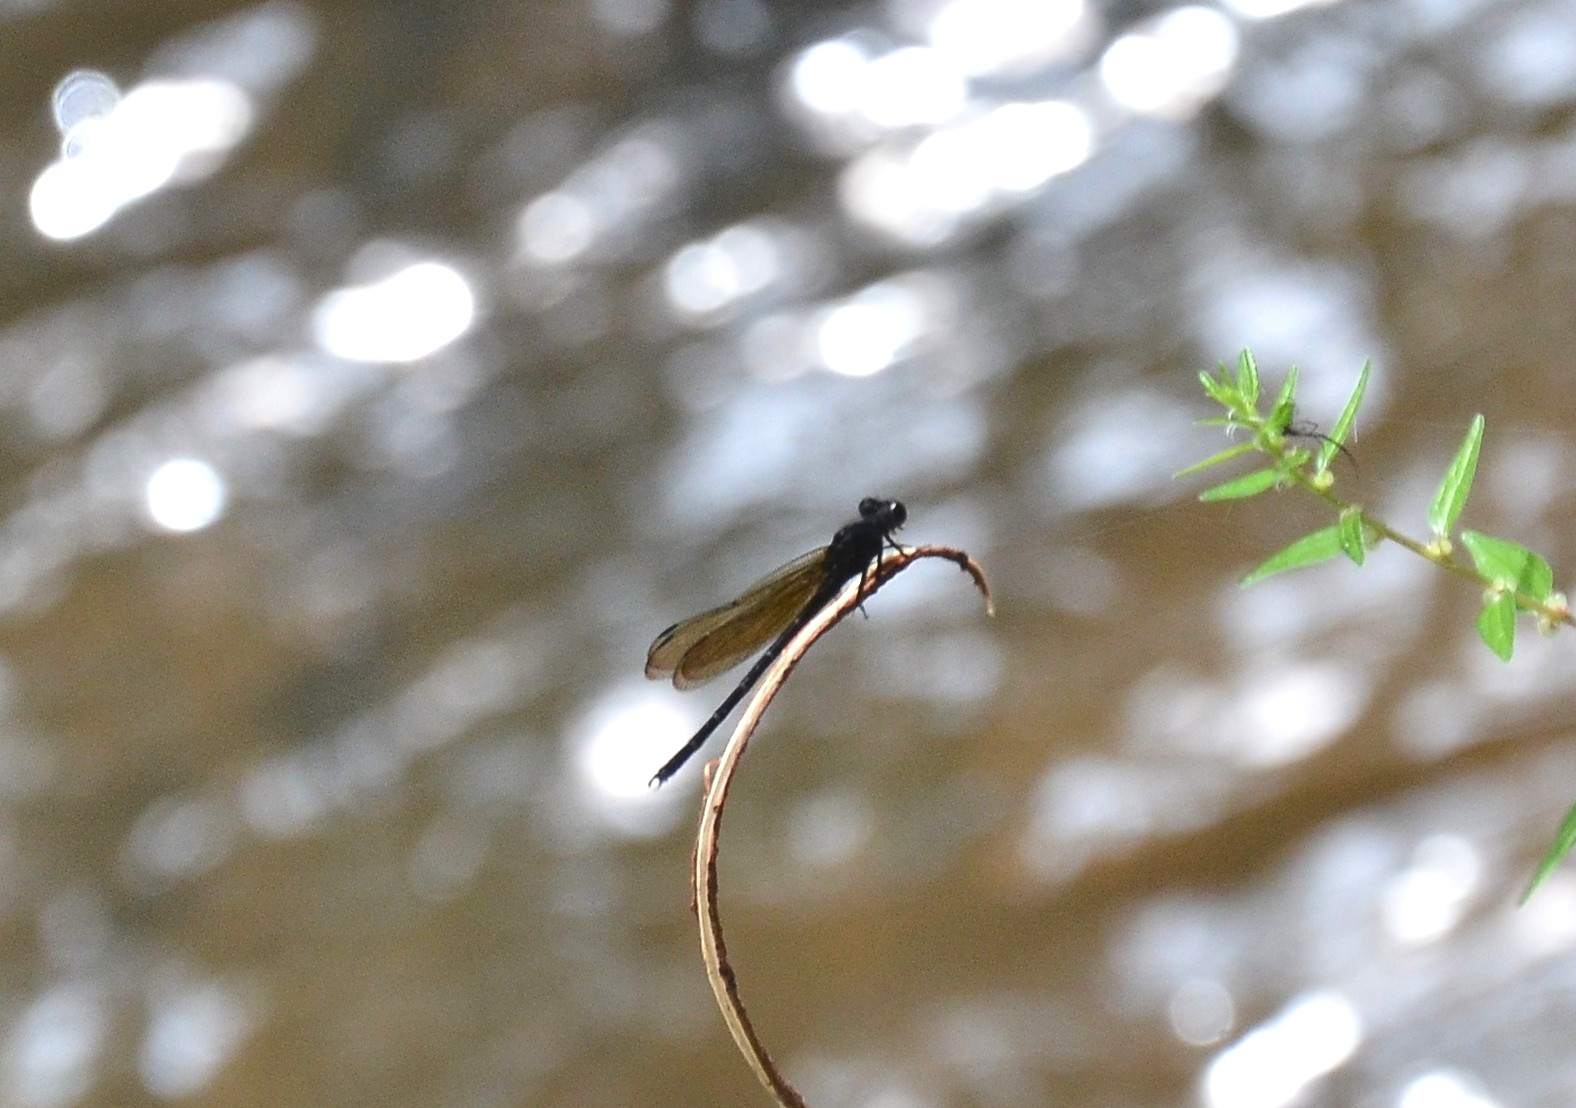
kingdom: Animalia
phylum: Arthropoda
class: Insecta
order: Odonata
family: Euphaeidae
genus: Dysphaea
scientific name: Dysphaea ethela
